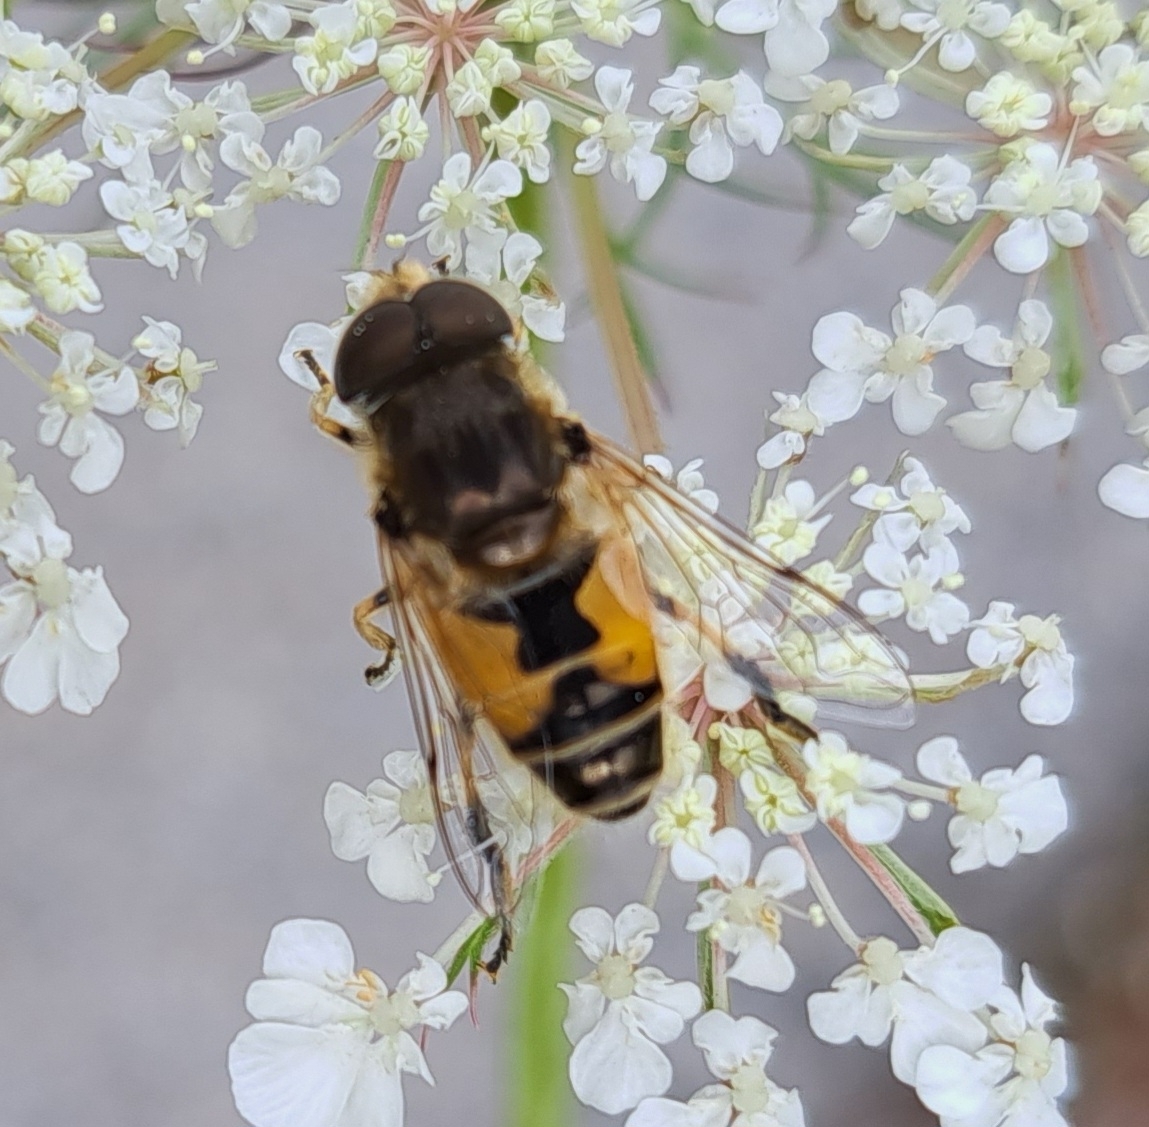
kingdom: Animalia
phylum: Arthropoda
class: Insecta
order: Diptera
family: Syrphidae
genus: Eristalis
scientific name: Eristalis arbustorum
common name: Hover fly
